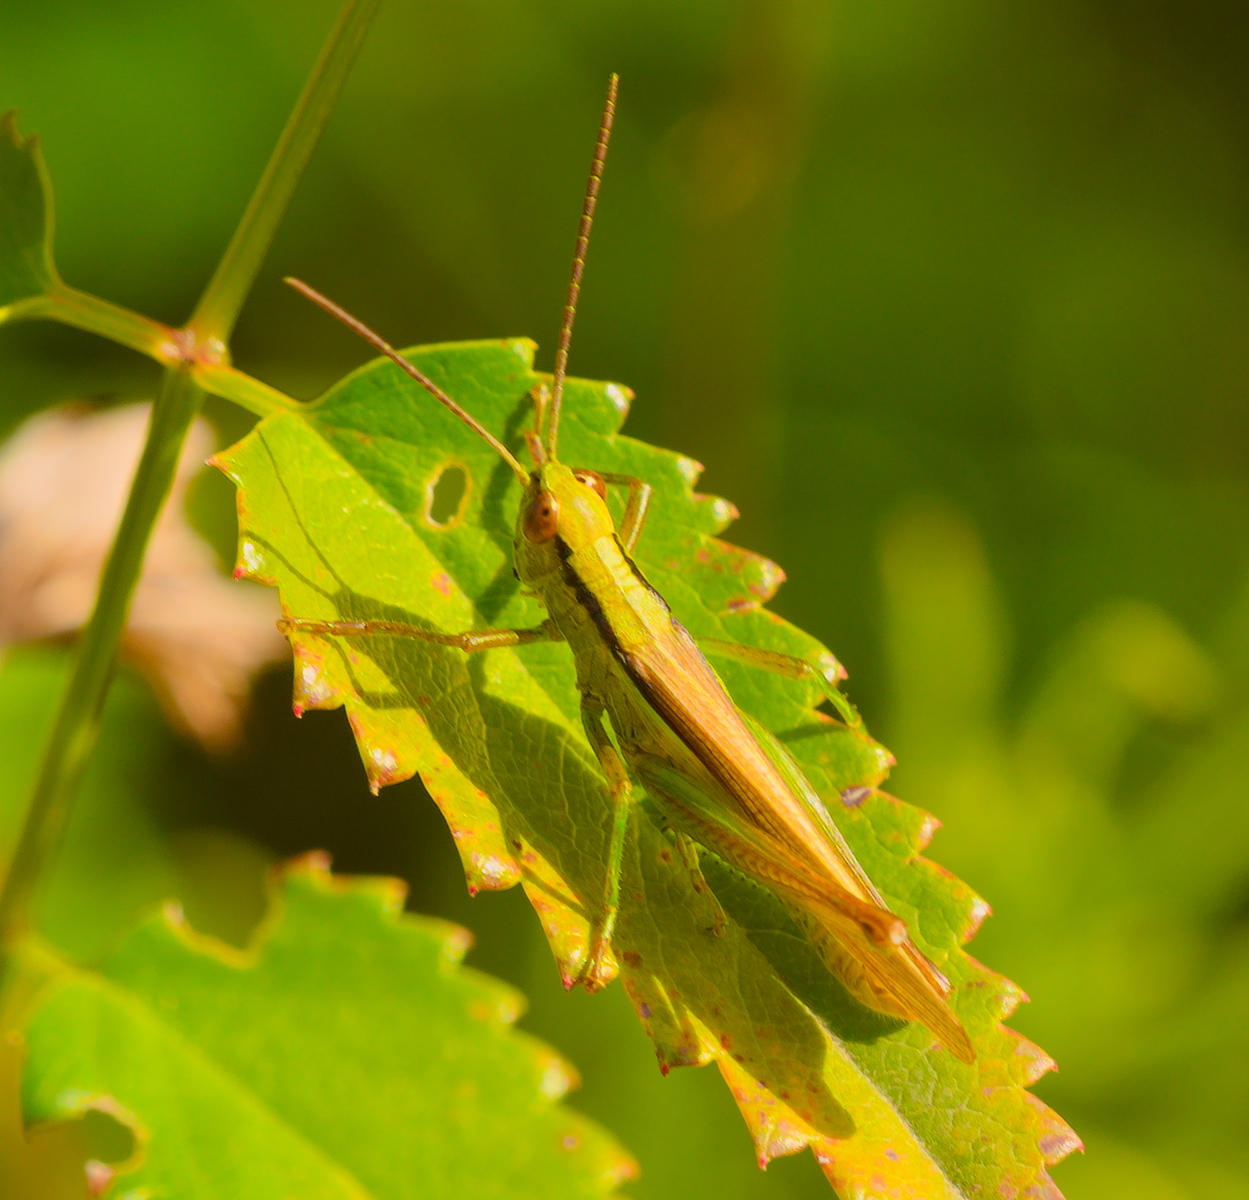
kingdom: Animalia
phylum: Arthropoda
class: Insecta
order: Orthoptera
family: Acrididae
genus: Mecostethus
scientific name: Mecostethus parapleurus
